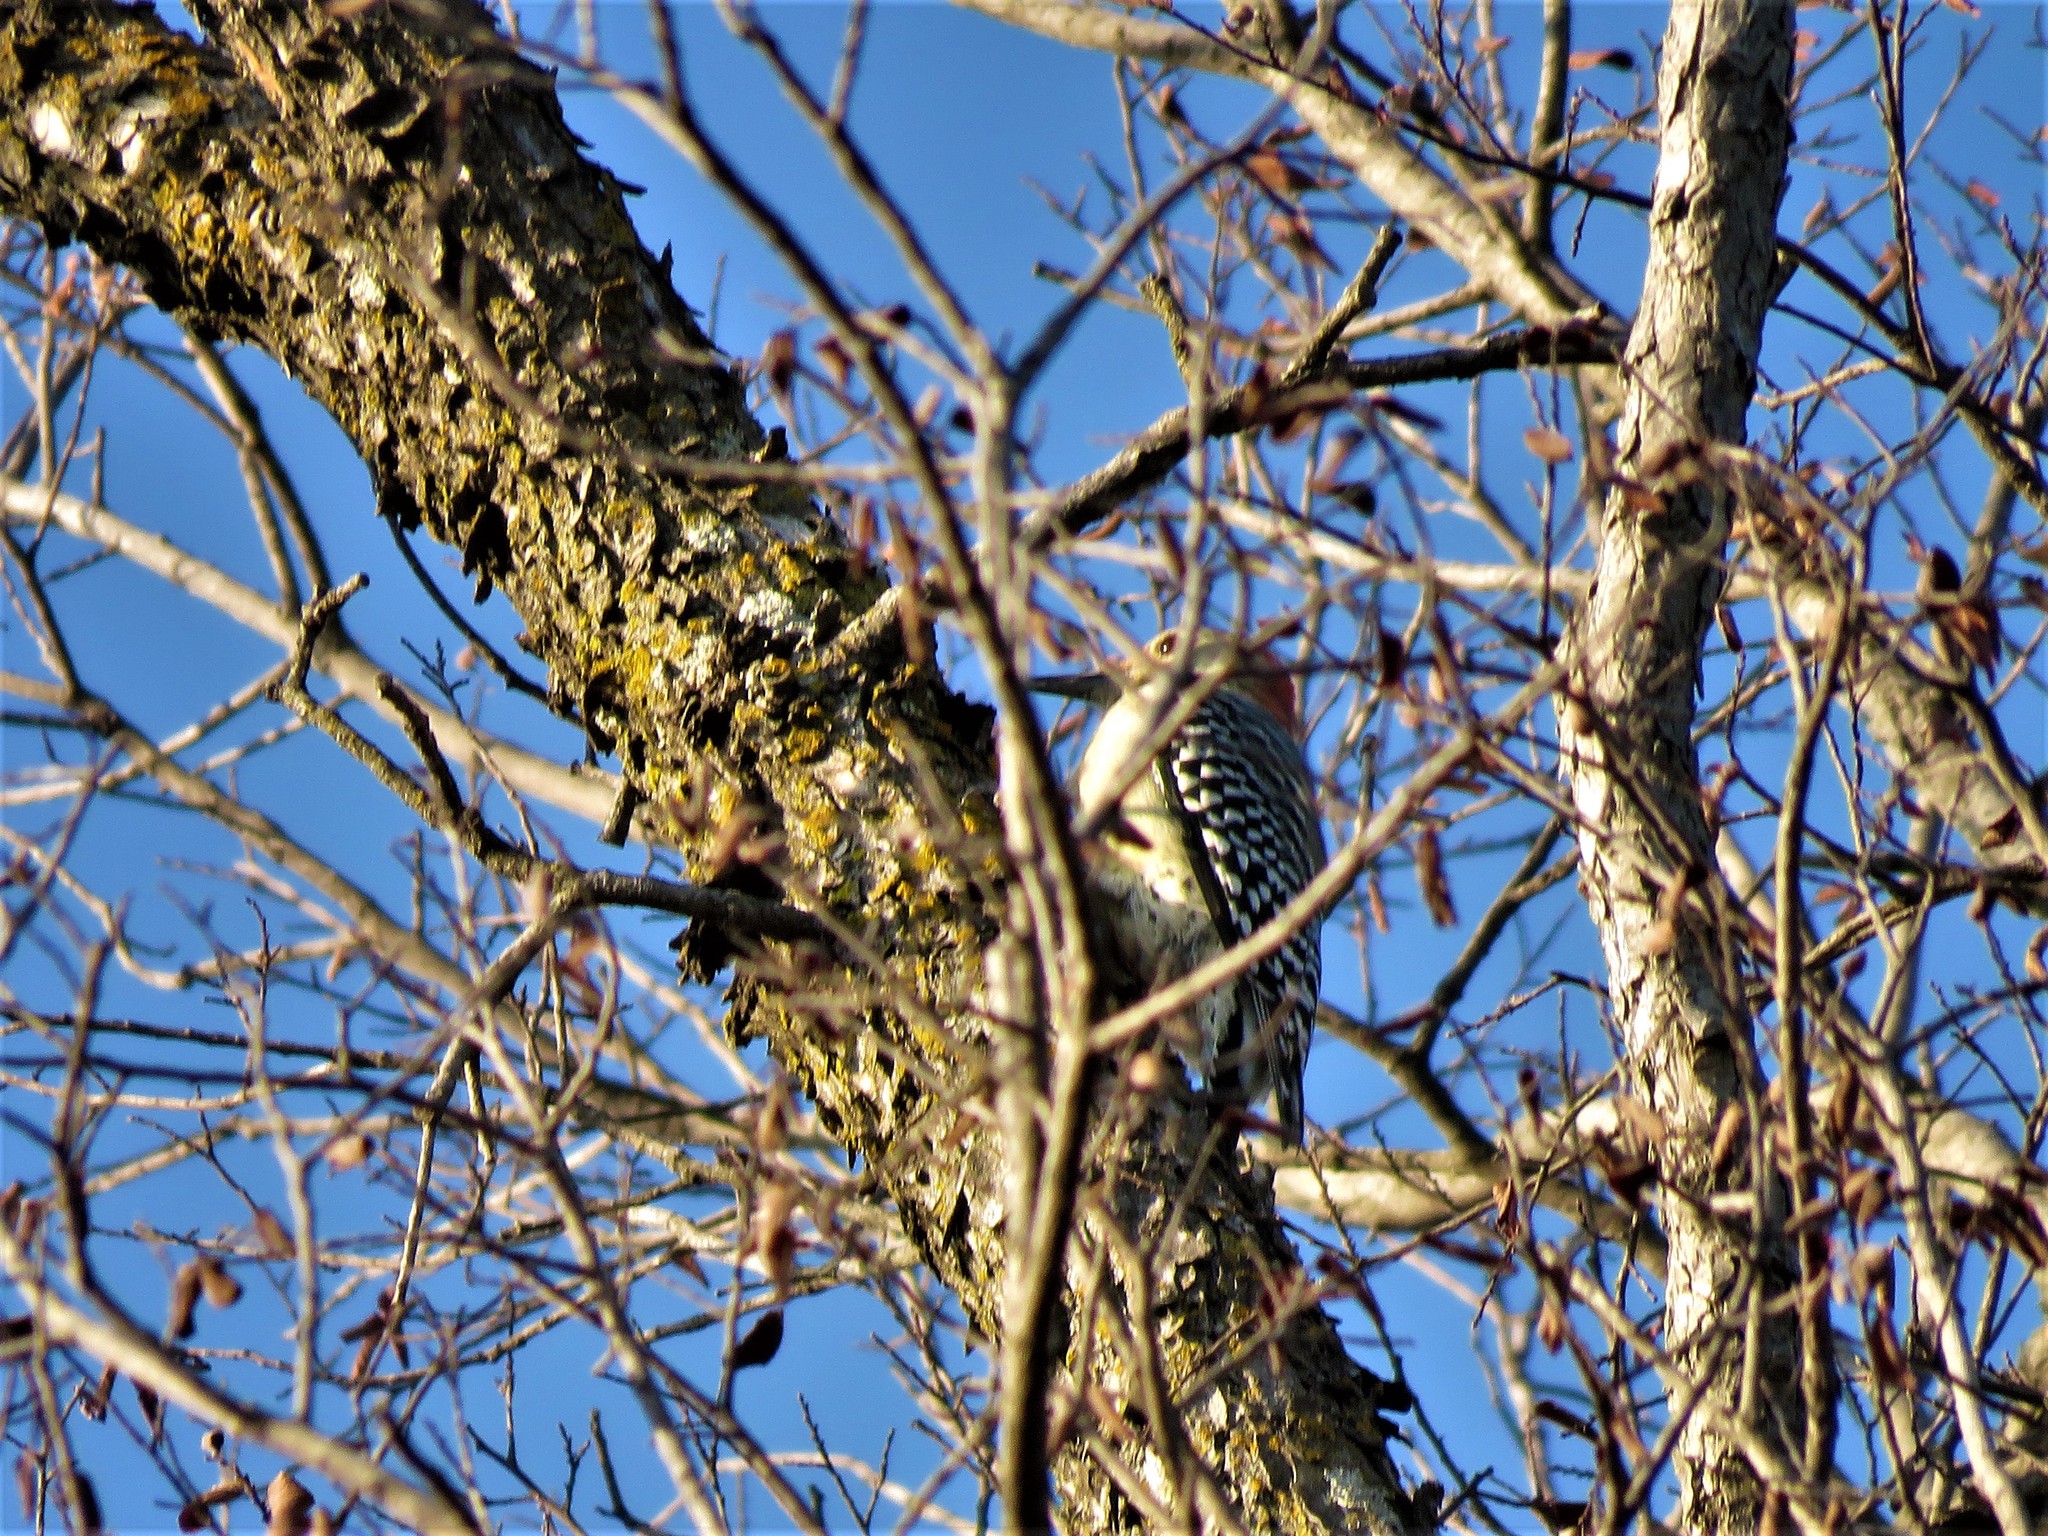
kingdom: Animalia
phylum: Chordata
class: Aves
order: Piciformes
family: Picidae
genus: Melanerpes
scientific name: Melanerpes carolinus
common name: Red-bellied woodpecker
